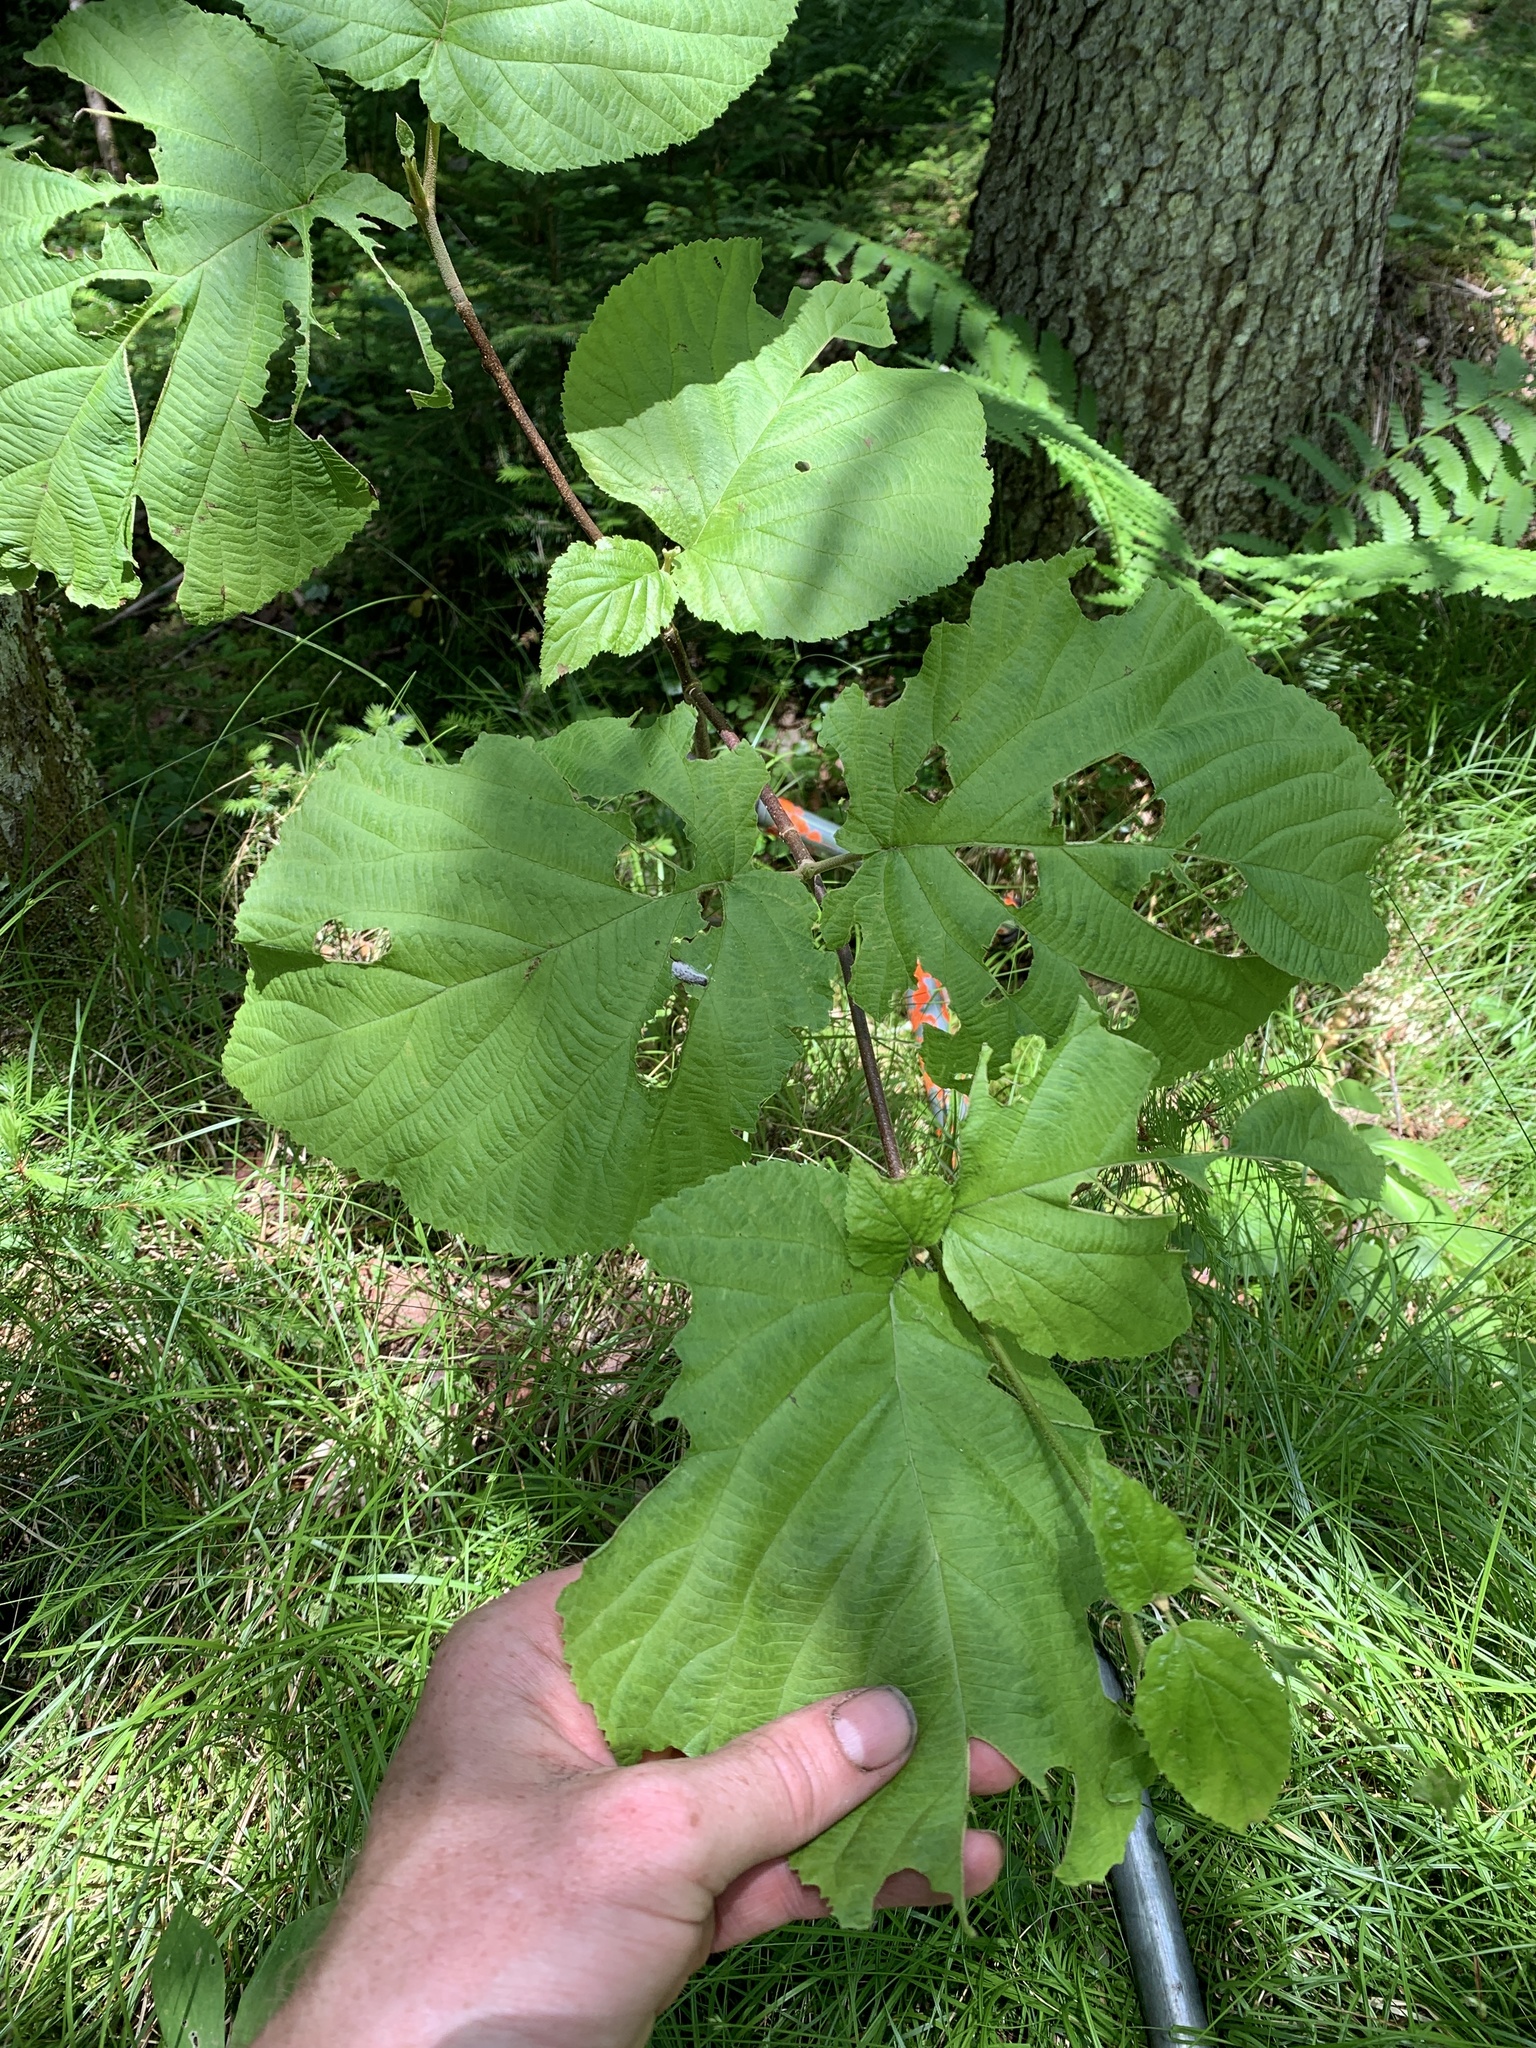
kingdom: Plantae
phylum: Tracheophyta
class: Magnoliopsida
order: Dipsacales
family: Viburnaceae
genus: Viburnum
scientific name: Viburnum lantanoides
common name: Hobblebush
